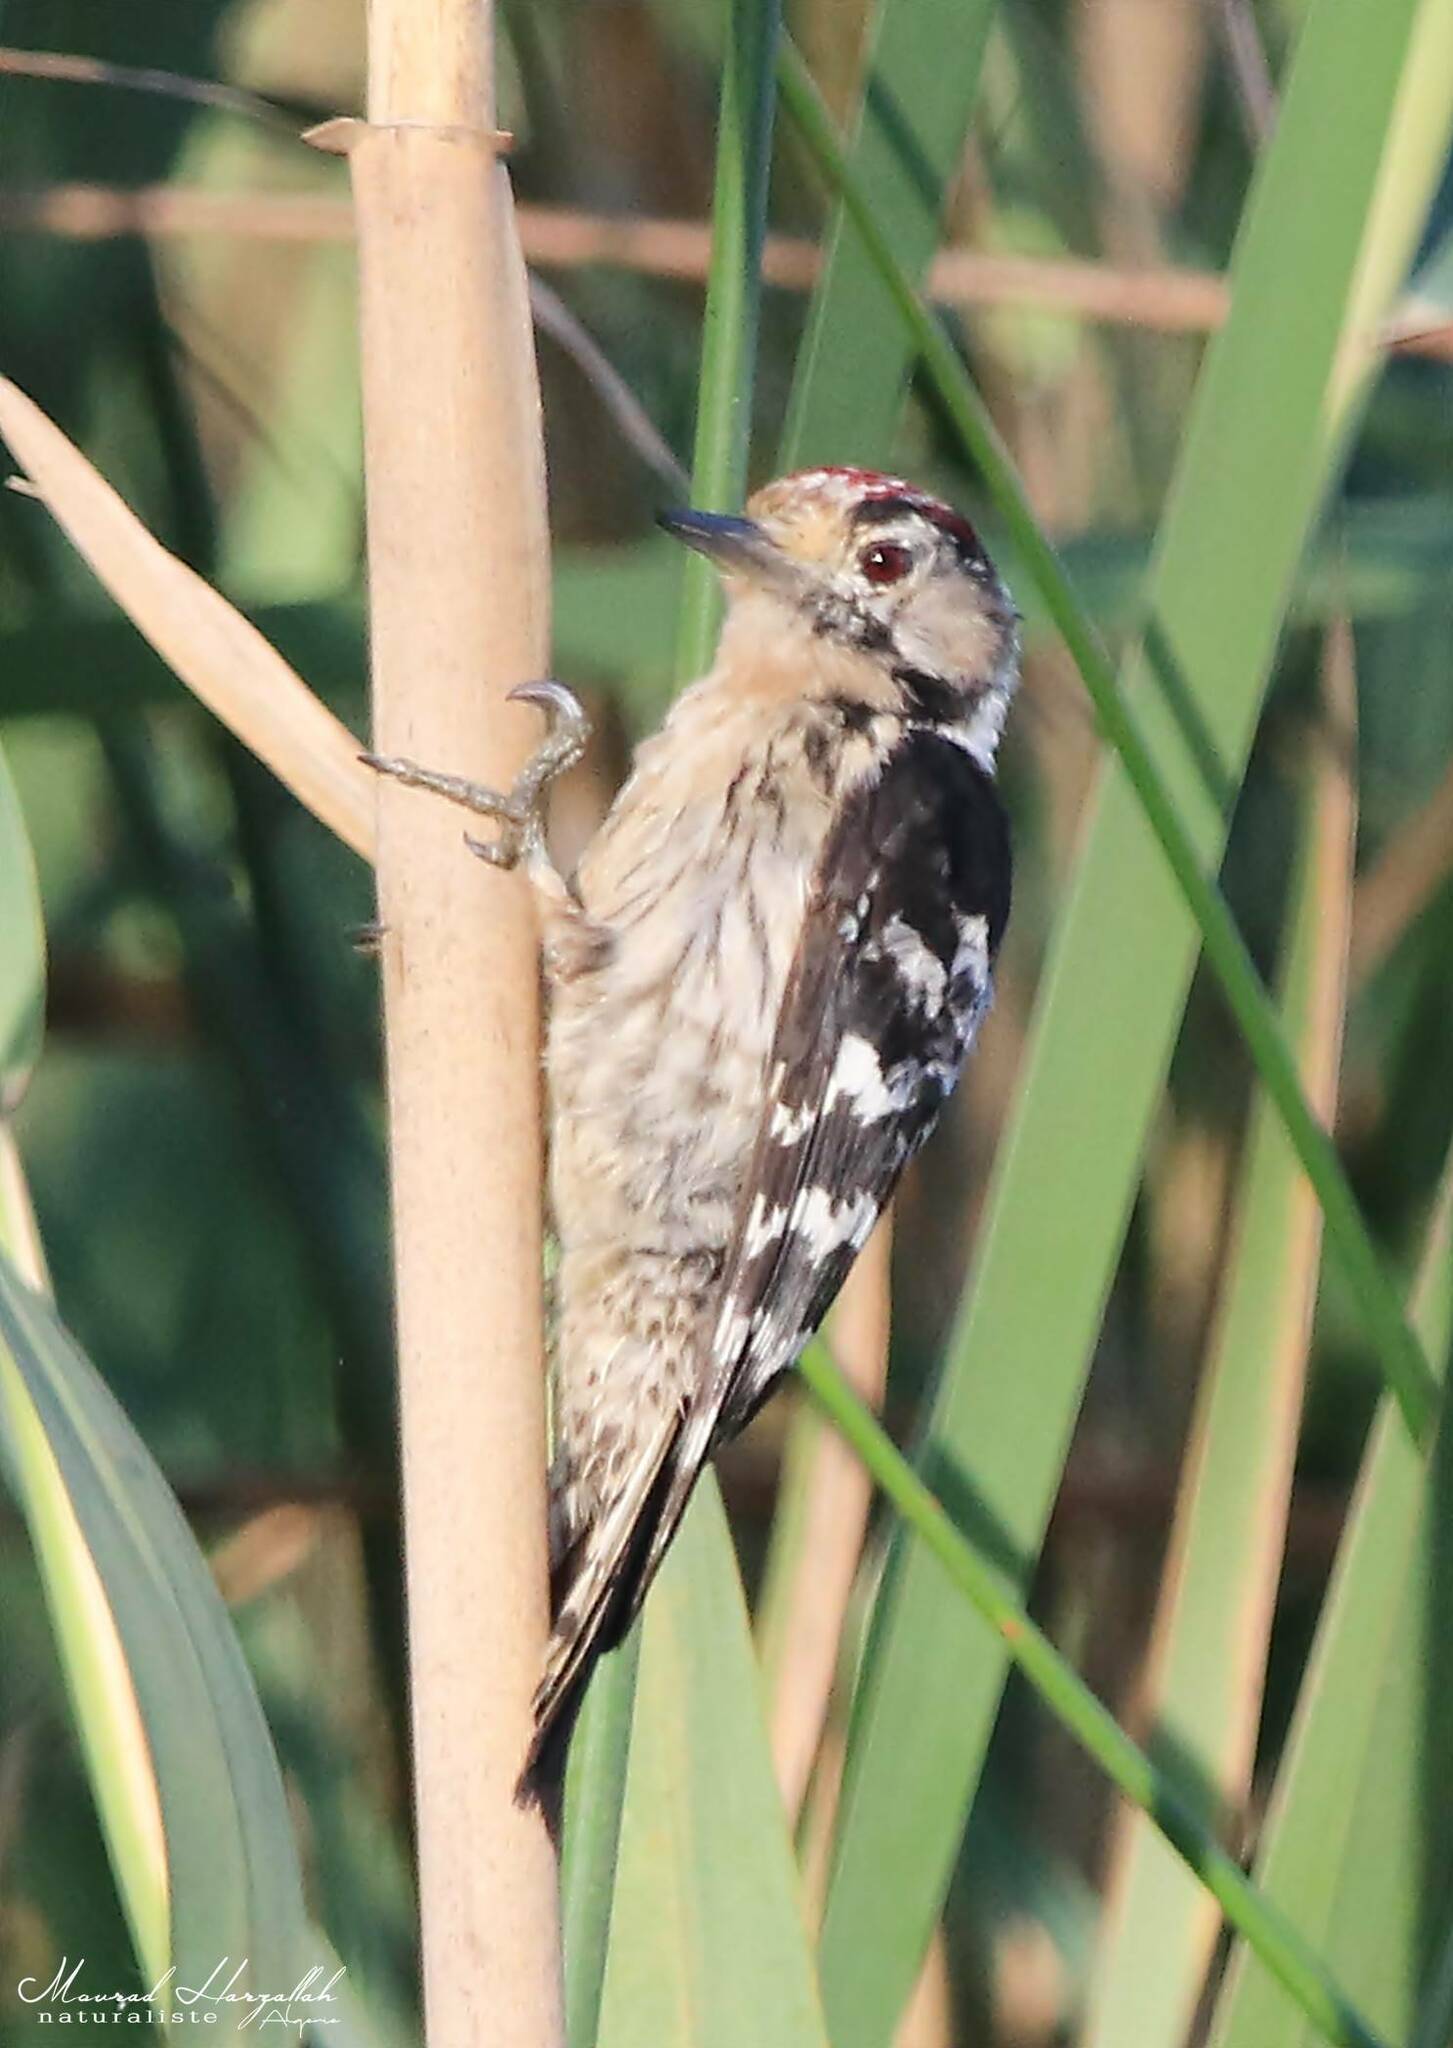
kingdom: Animalia
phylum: Chordata
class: Aves
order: Piciformes
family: Picidae
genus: Dryobates
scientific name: Dryobates minor
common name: Lesser spotted woodpecker
